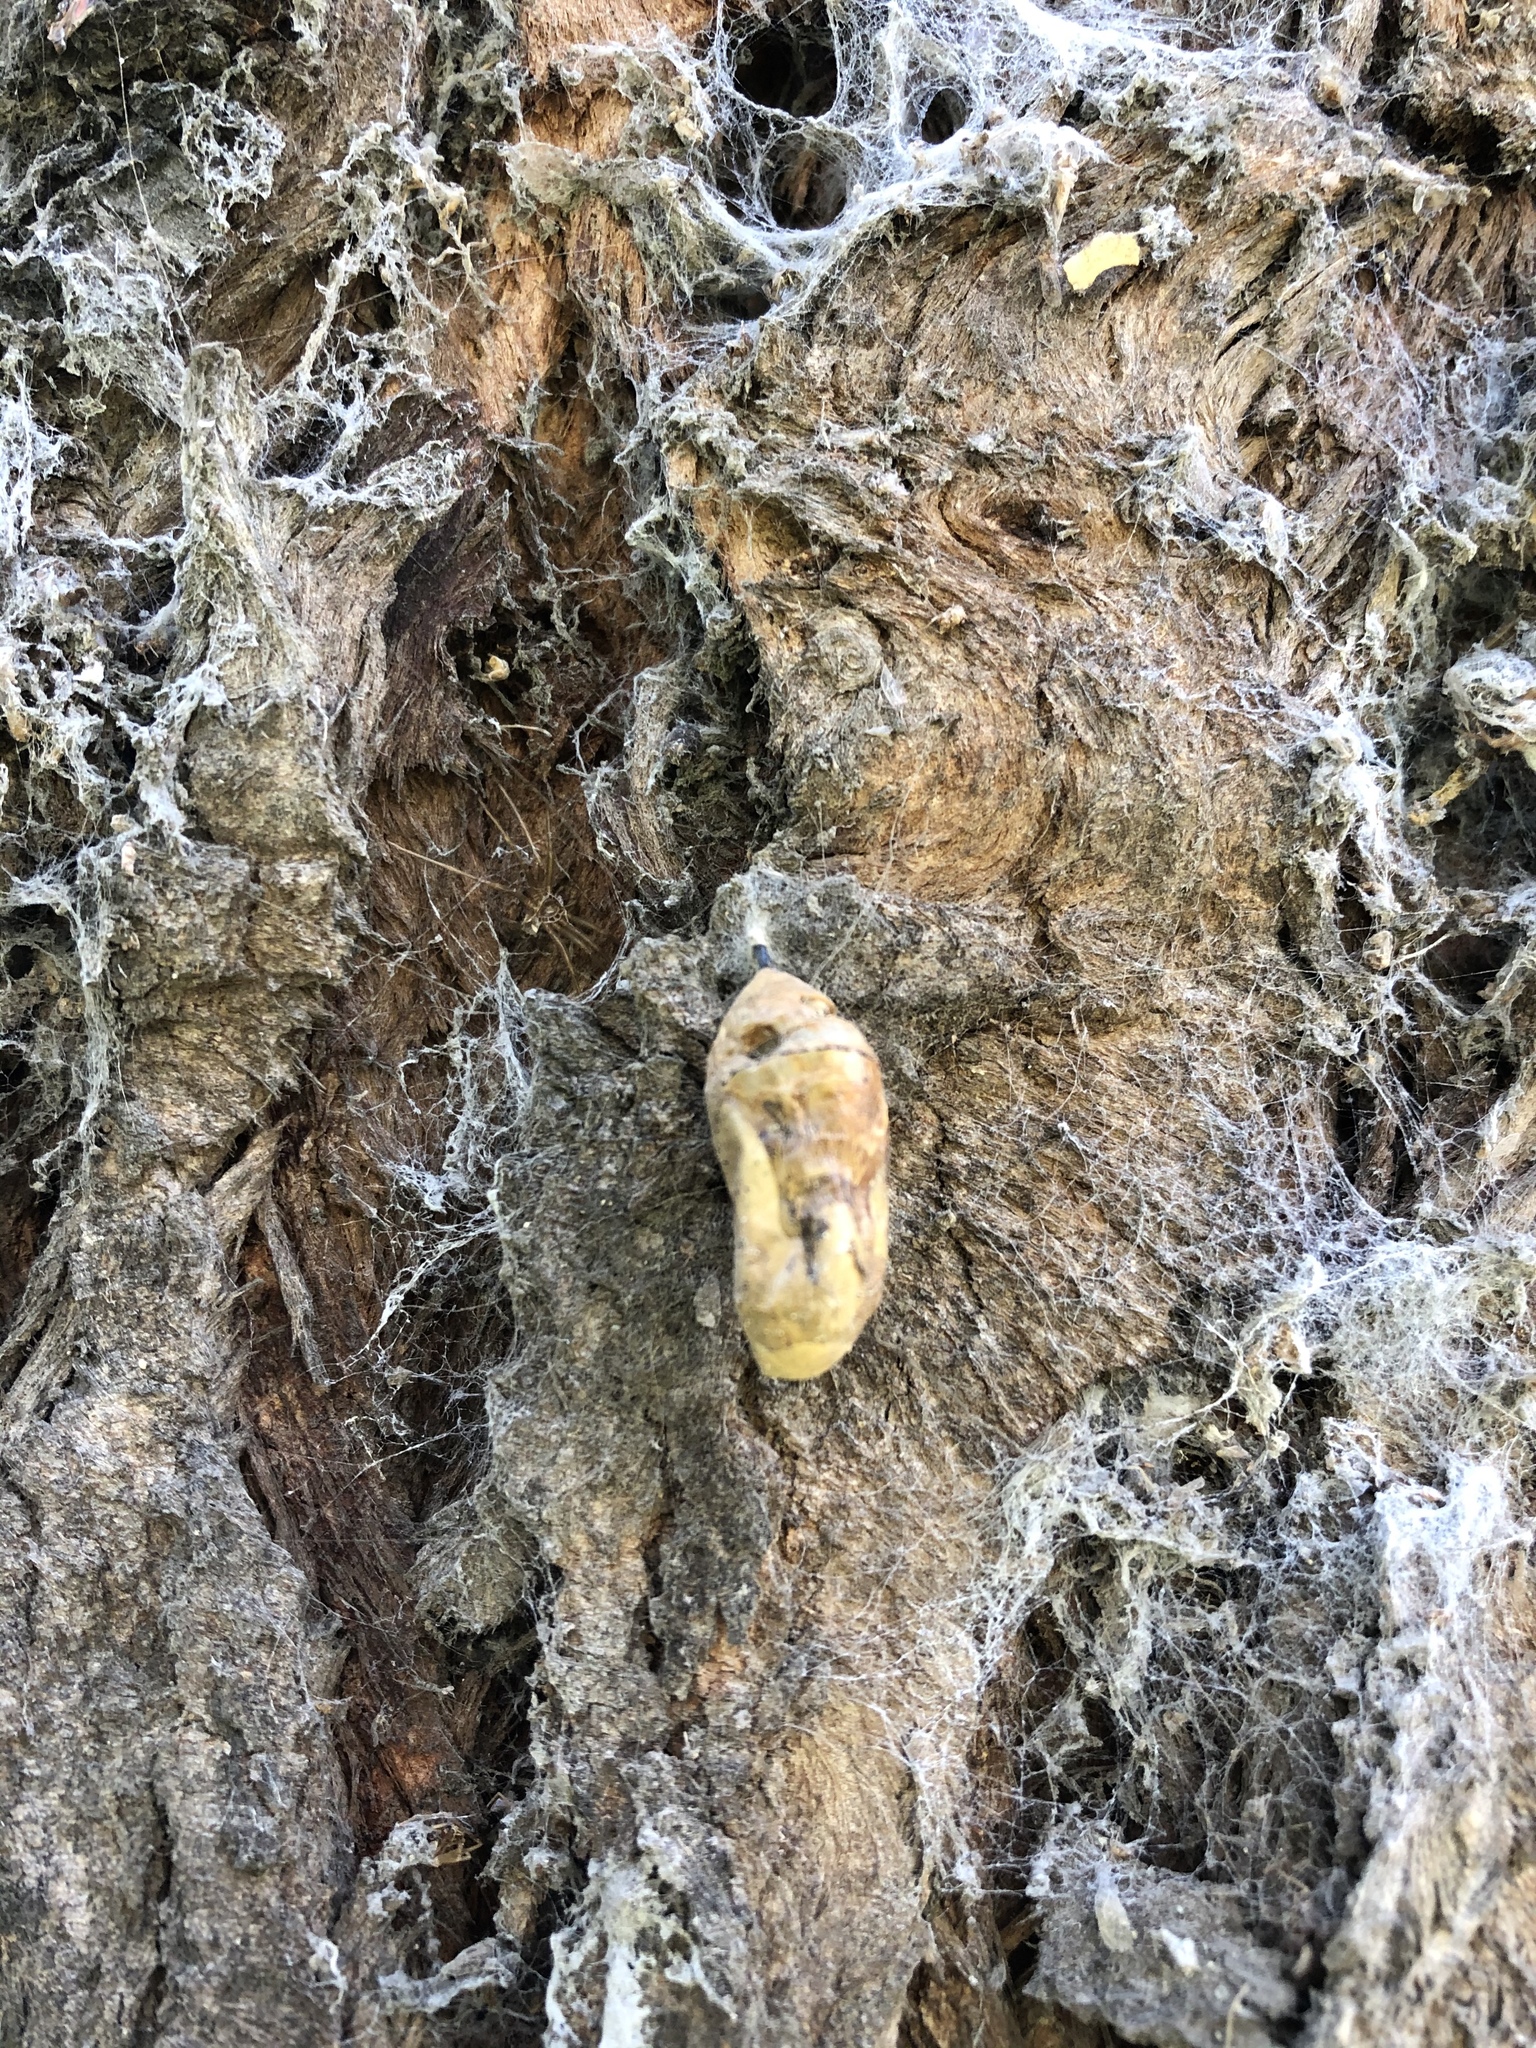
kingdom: Animalia
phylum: Arthropoda
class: Insecta
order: Lepidoptera
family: Nymphalidae
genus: Danaus
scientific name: Danaus plexippus
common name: Monarch
